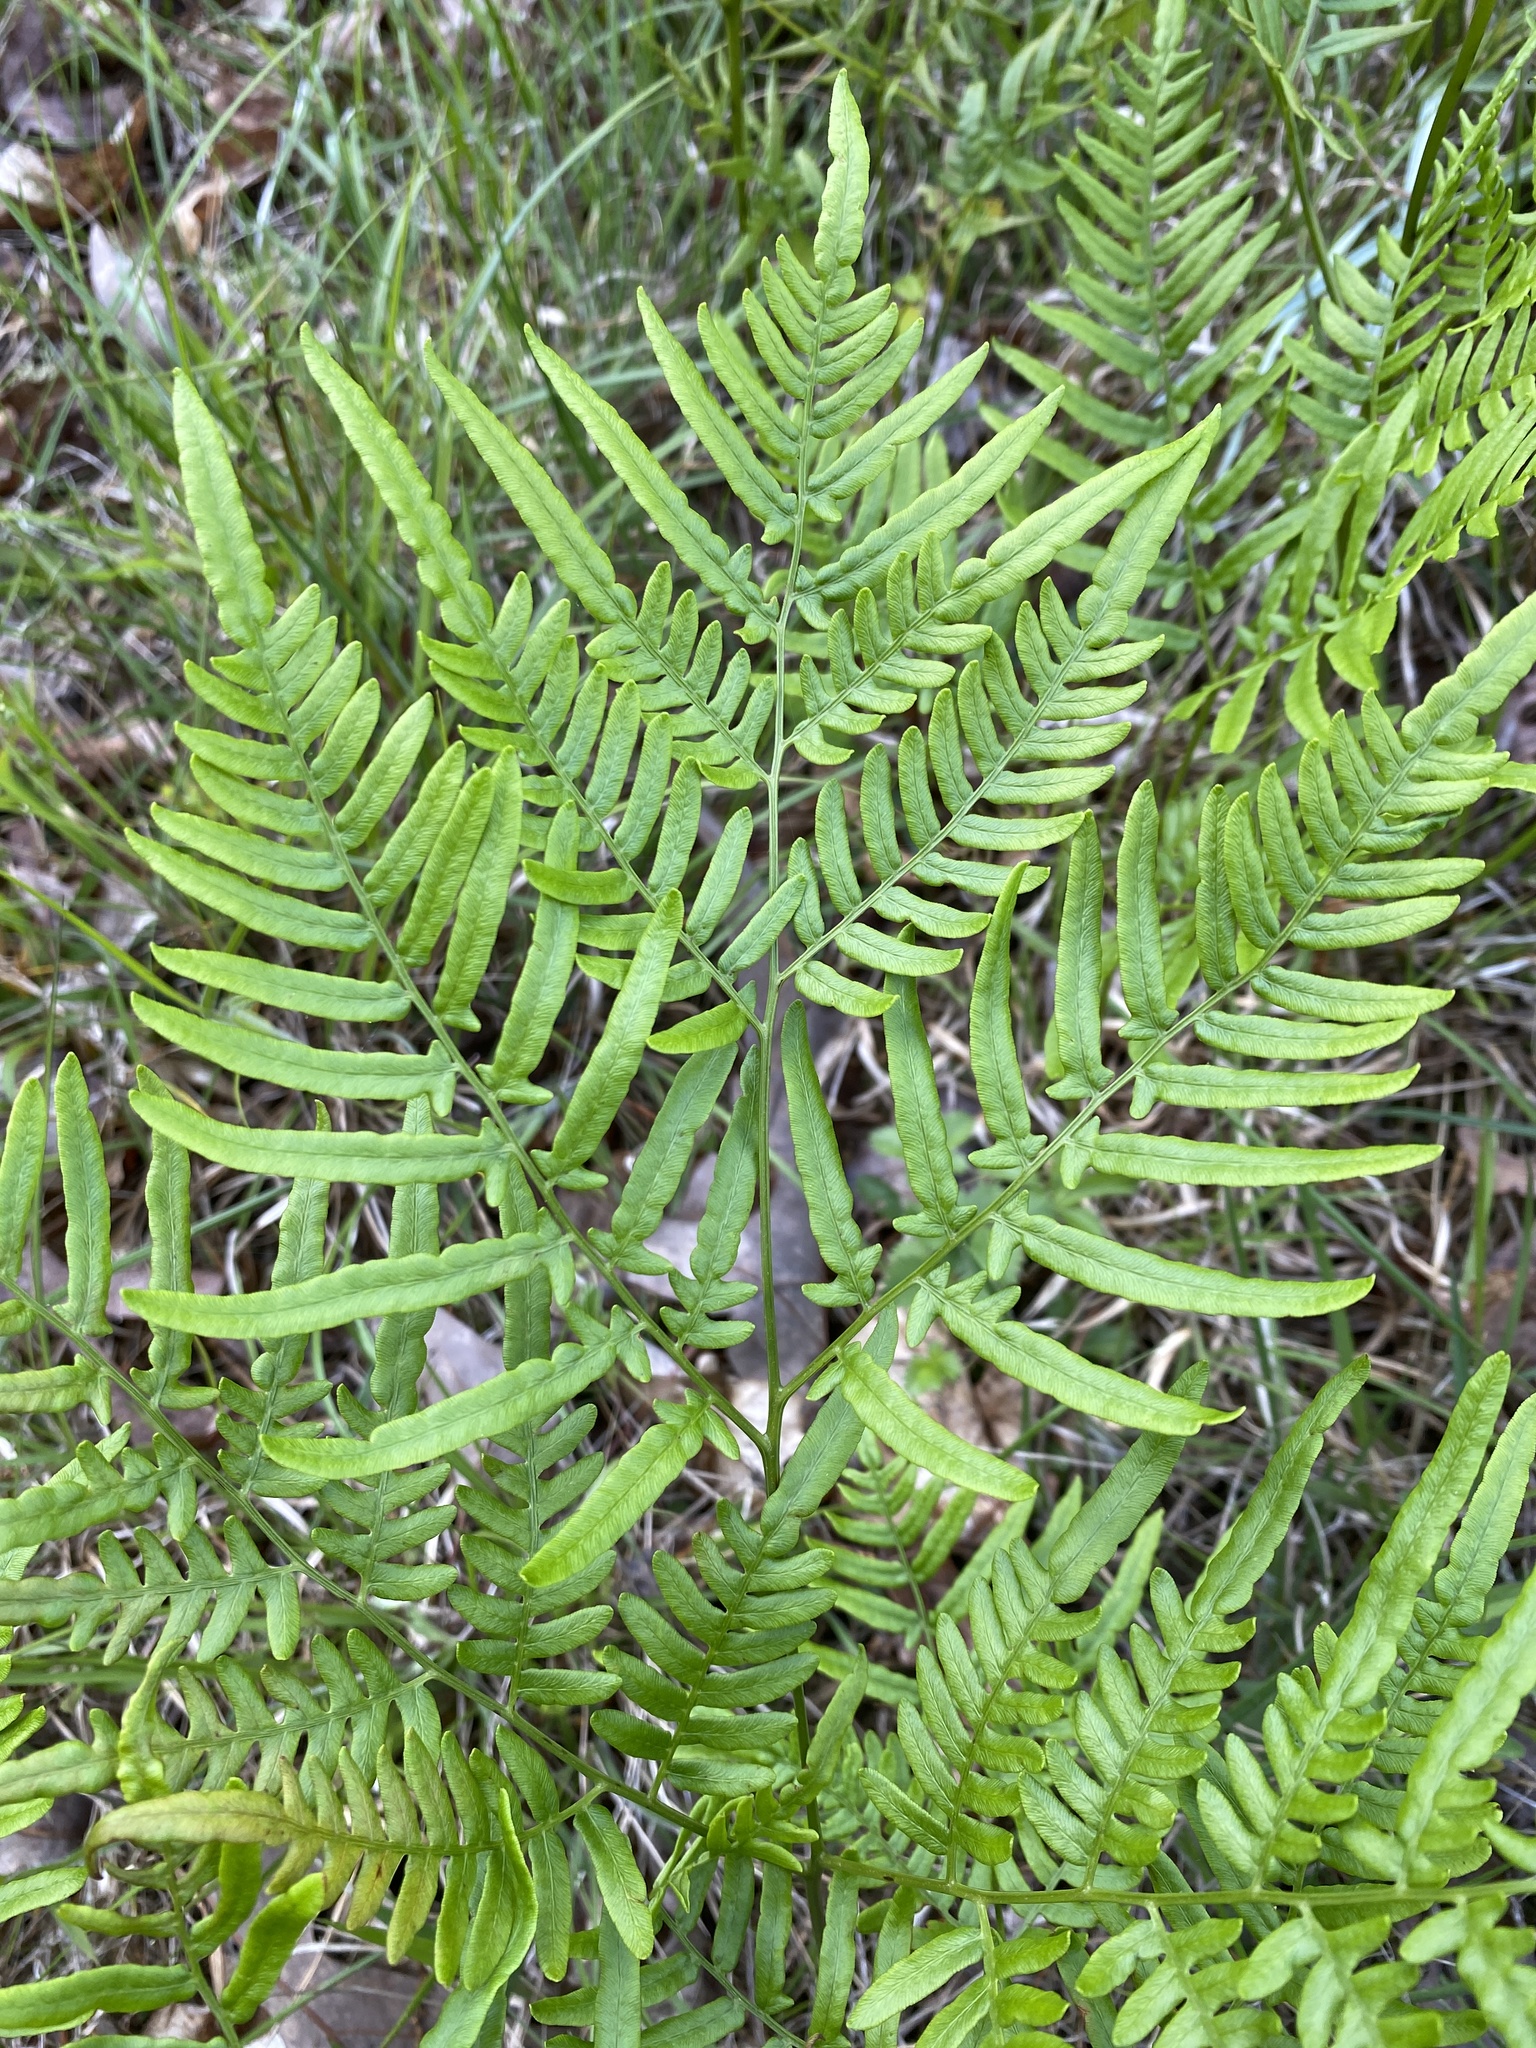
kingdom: Plantae
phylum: Tracheophyta
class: Polypodiopsida
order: Polypodiales
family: Dennstaedtiaceae
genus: Pteridium
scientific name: Pteridium
